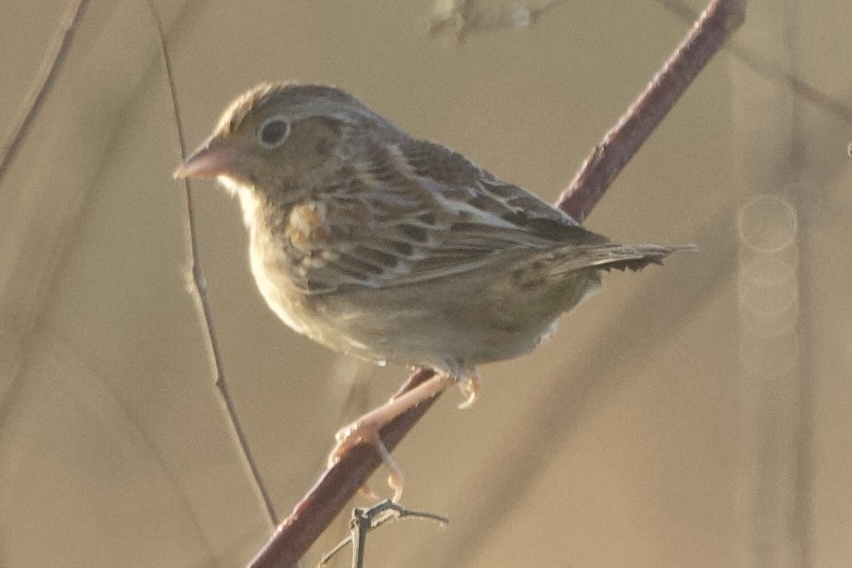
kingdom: Animalia
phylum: Chordata
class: Aves
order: Passeriformes
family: Passerellidae
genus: Ammodramus
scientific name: Ammodramus savannarum
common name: Grasshopper sparrow
